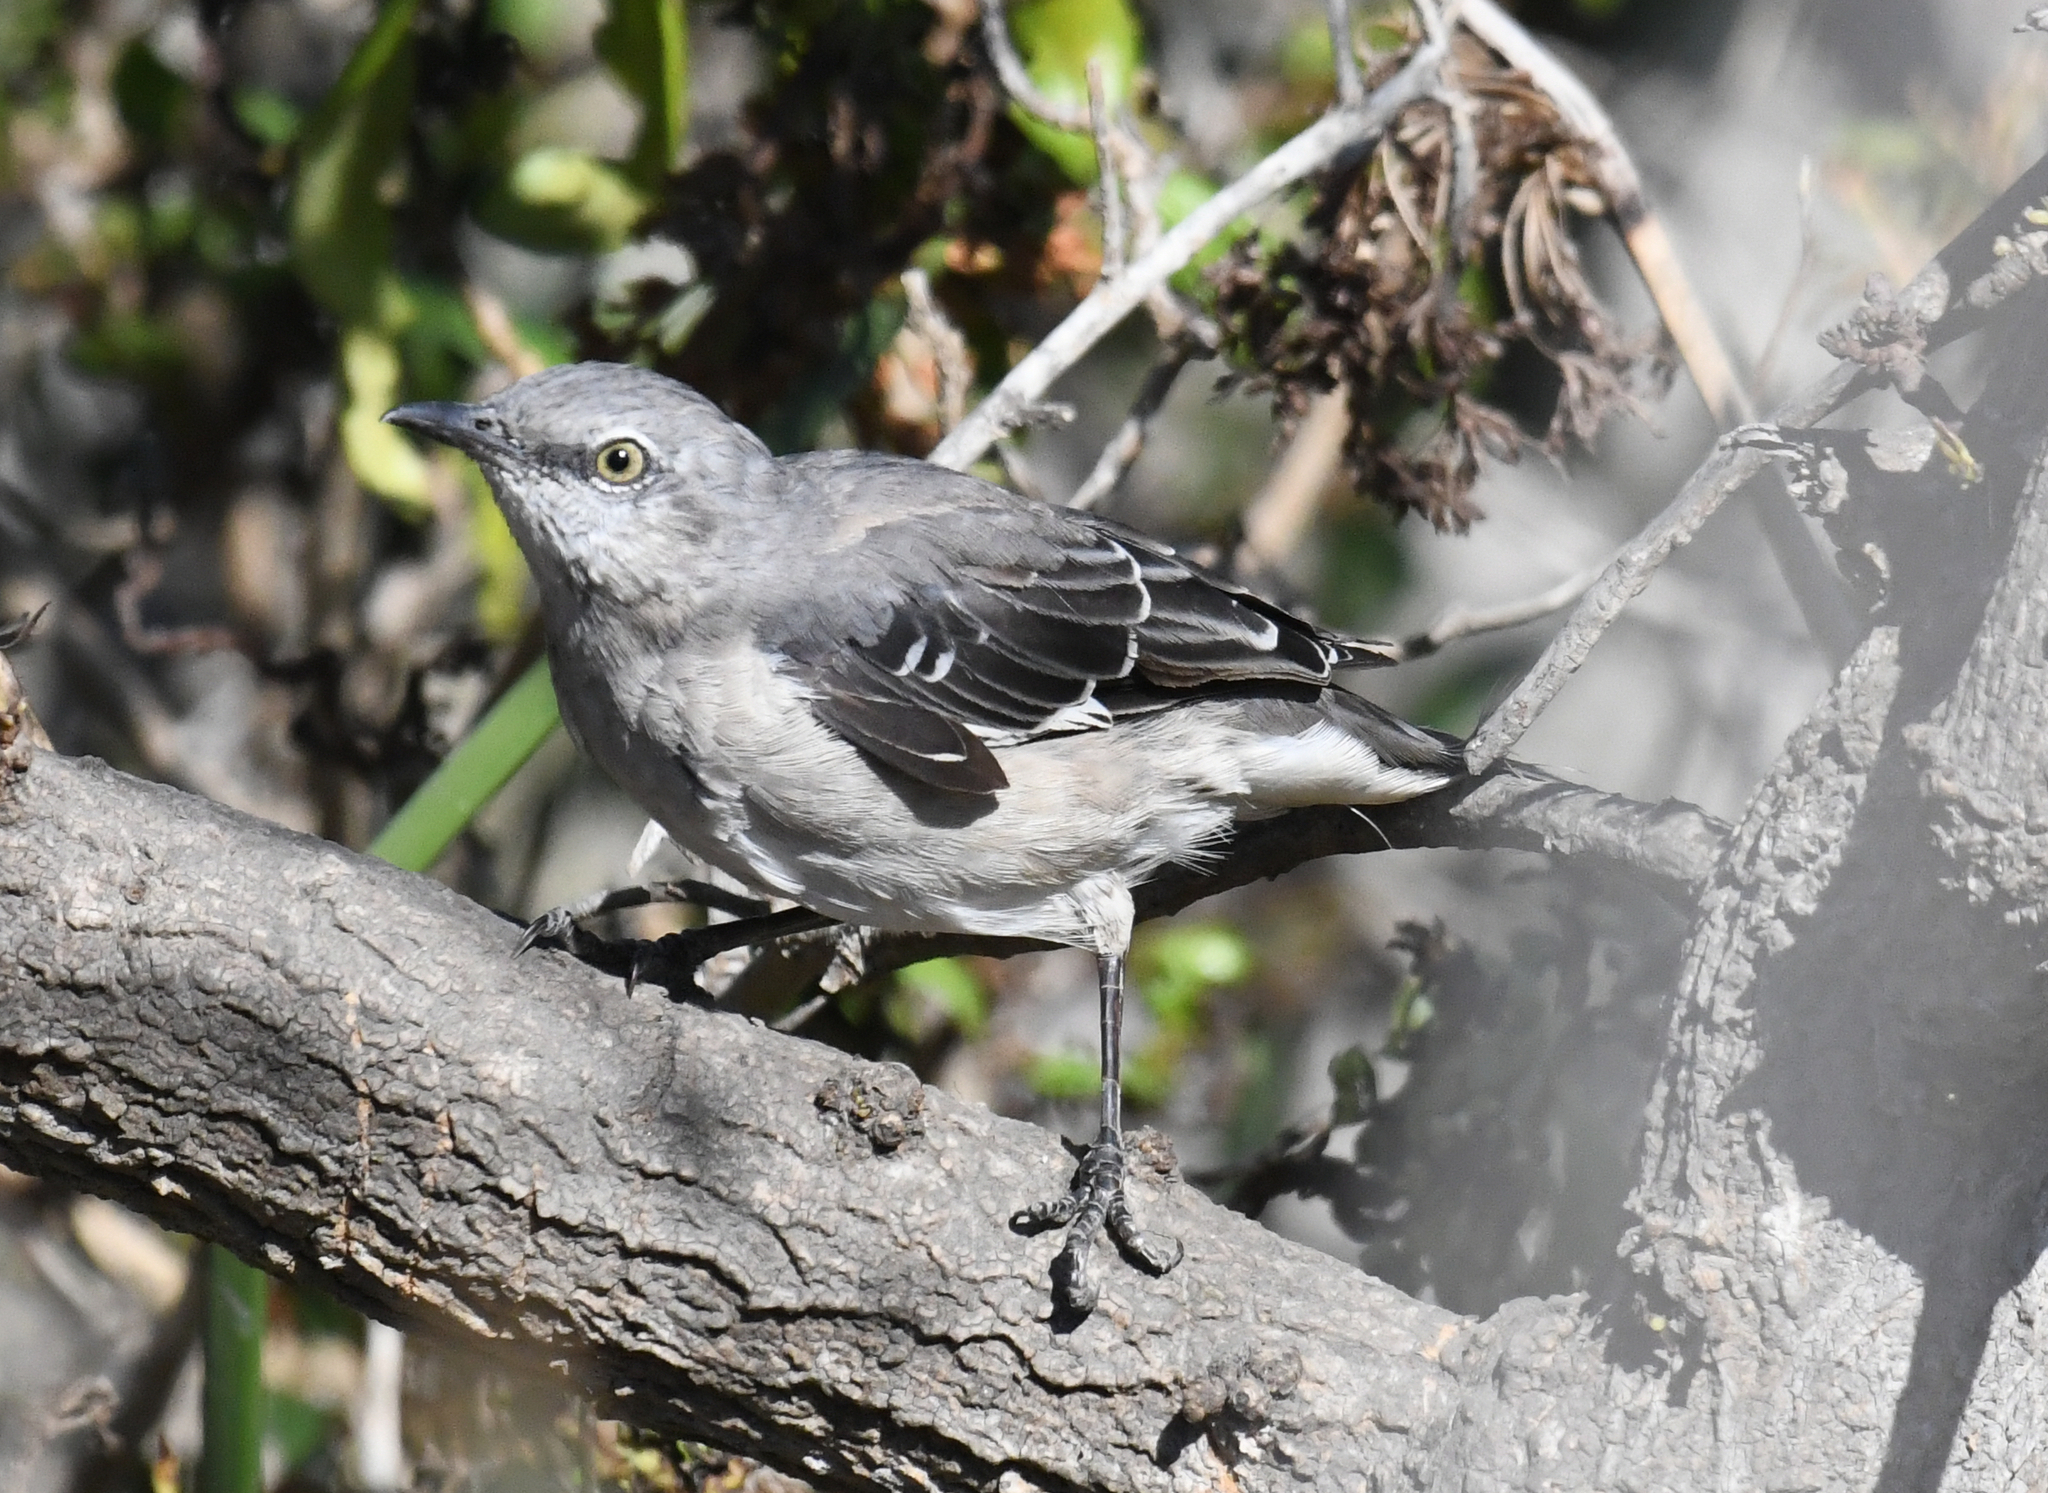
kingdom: Animalia
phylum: Chordata
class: Aves
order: Passeriformes
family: Mimidae
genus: Mimus
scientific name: Mimus polyglottos
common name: Northern mockingbird
